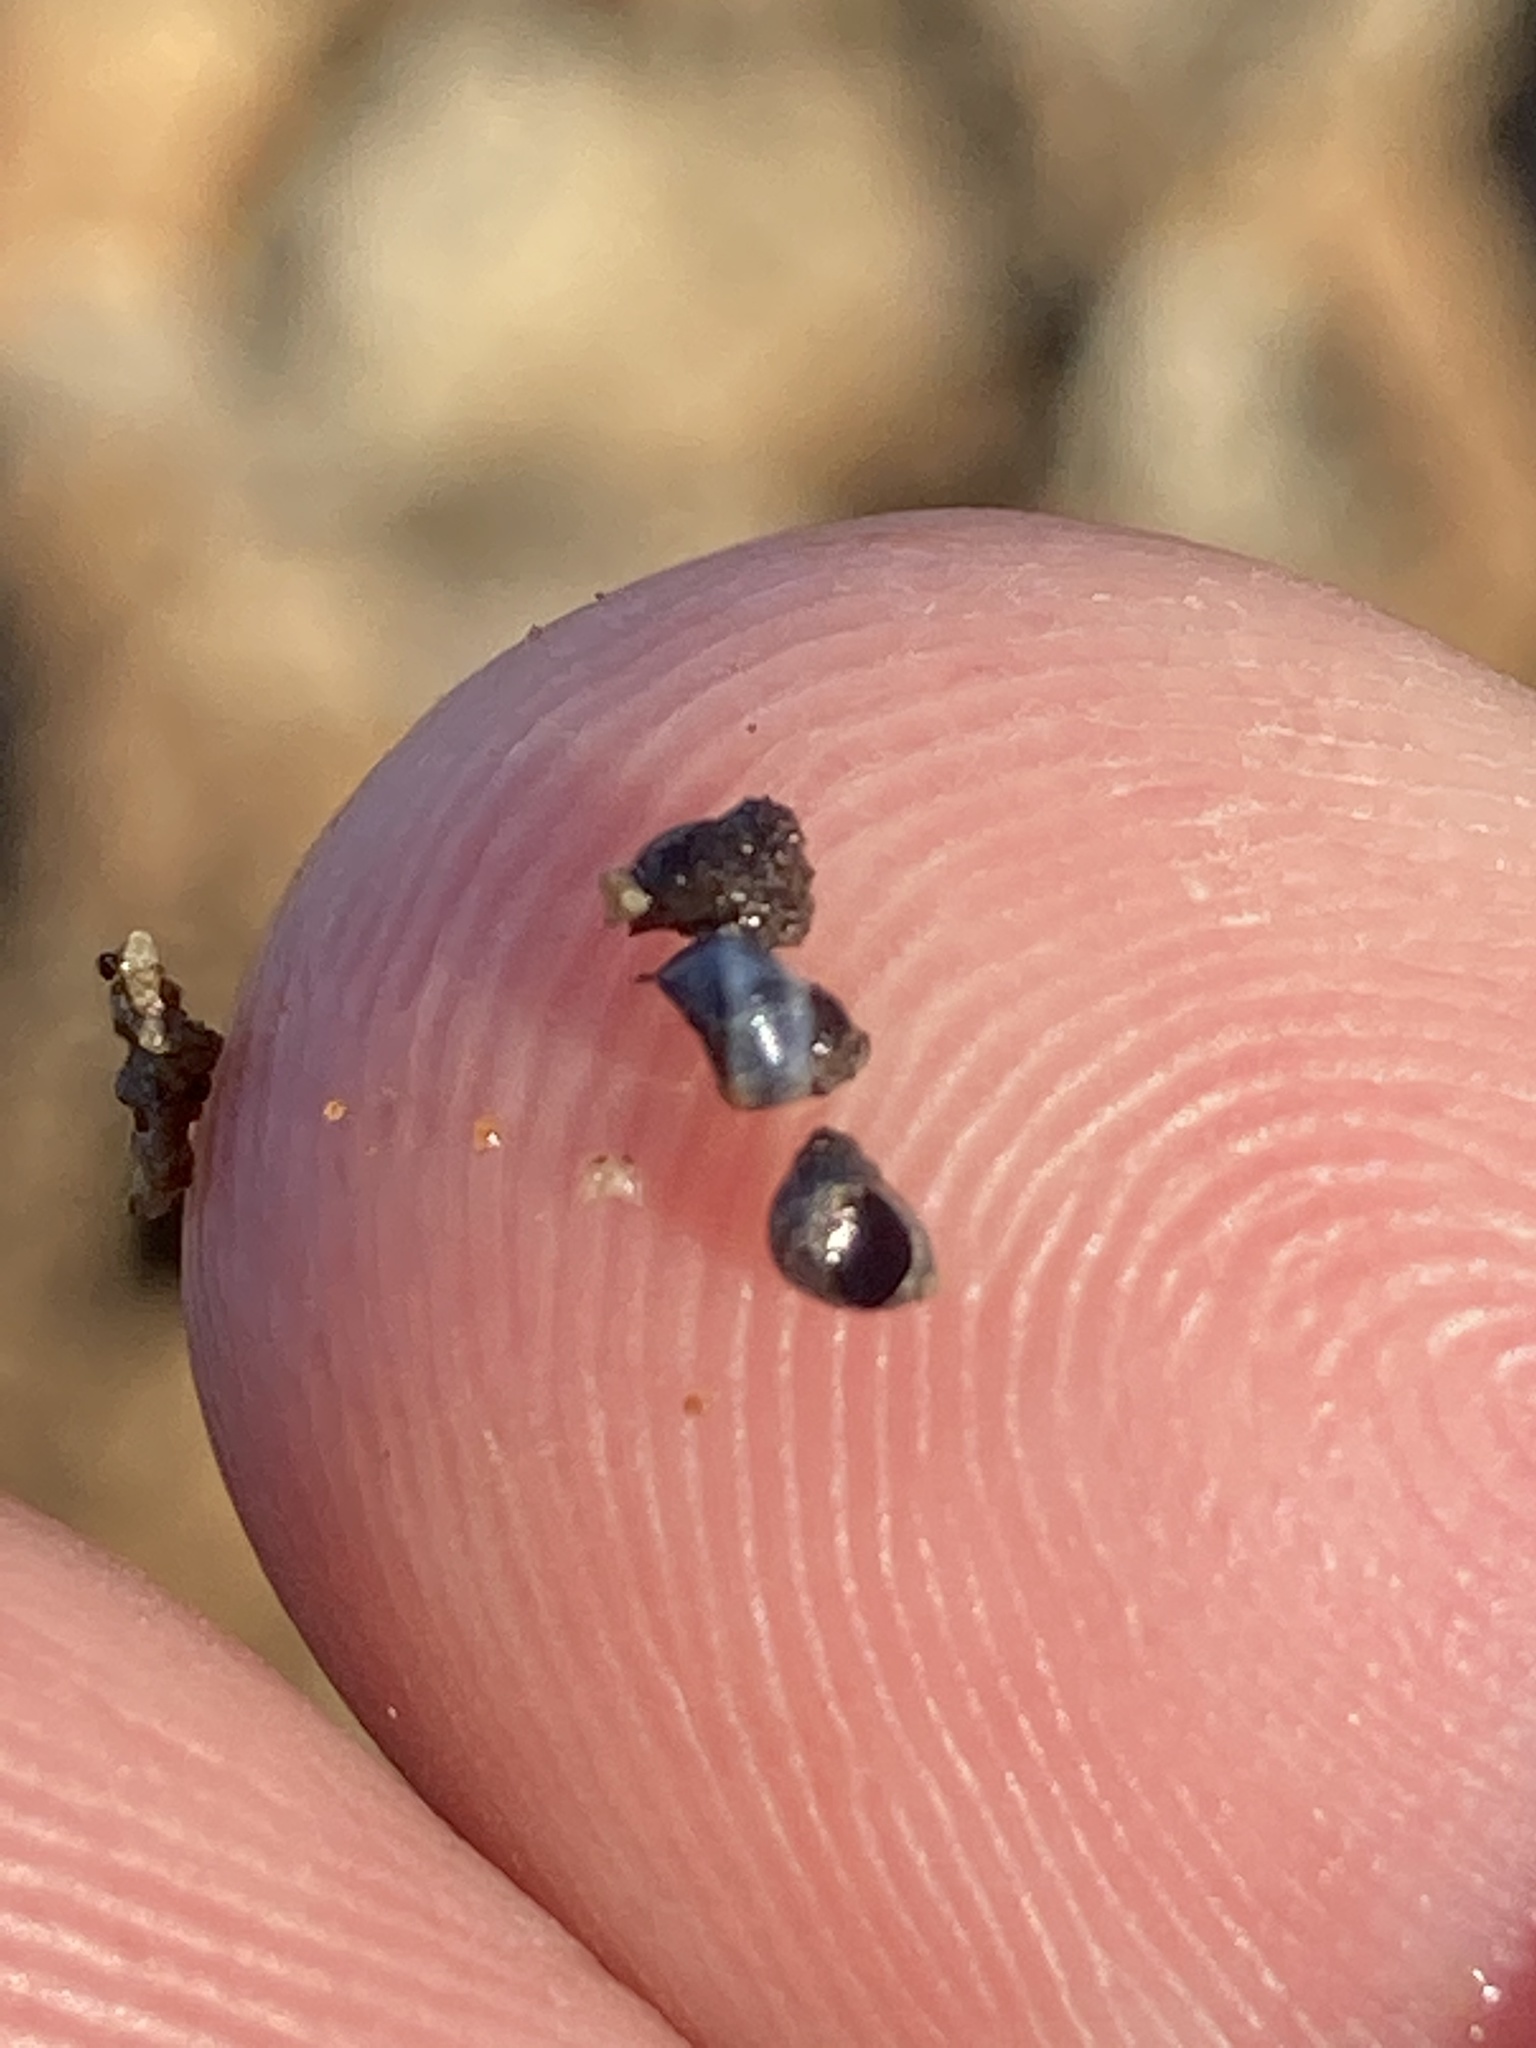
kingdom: Animalia
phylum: Mollusca
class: Gastropoda
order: Littorinimorpha
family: Littorinidae
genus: Austrolittorina
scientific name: Austrolittorina antipodum
